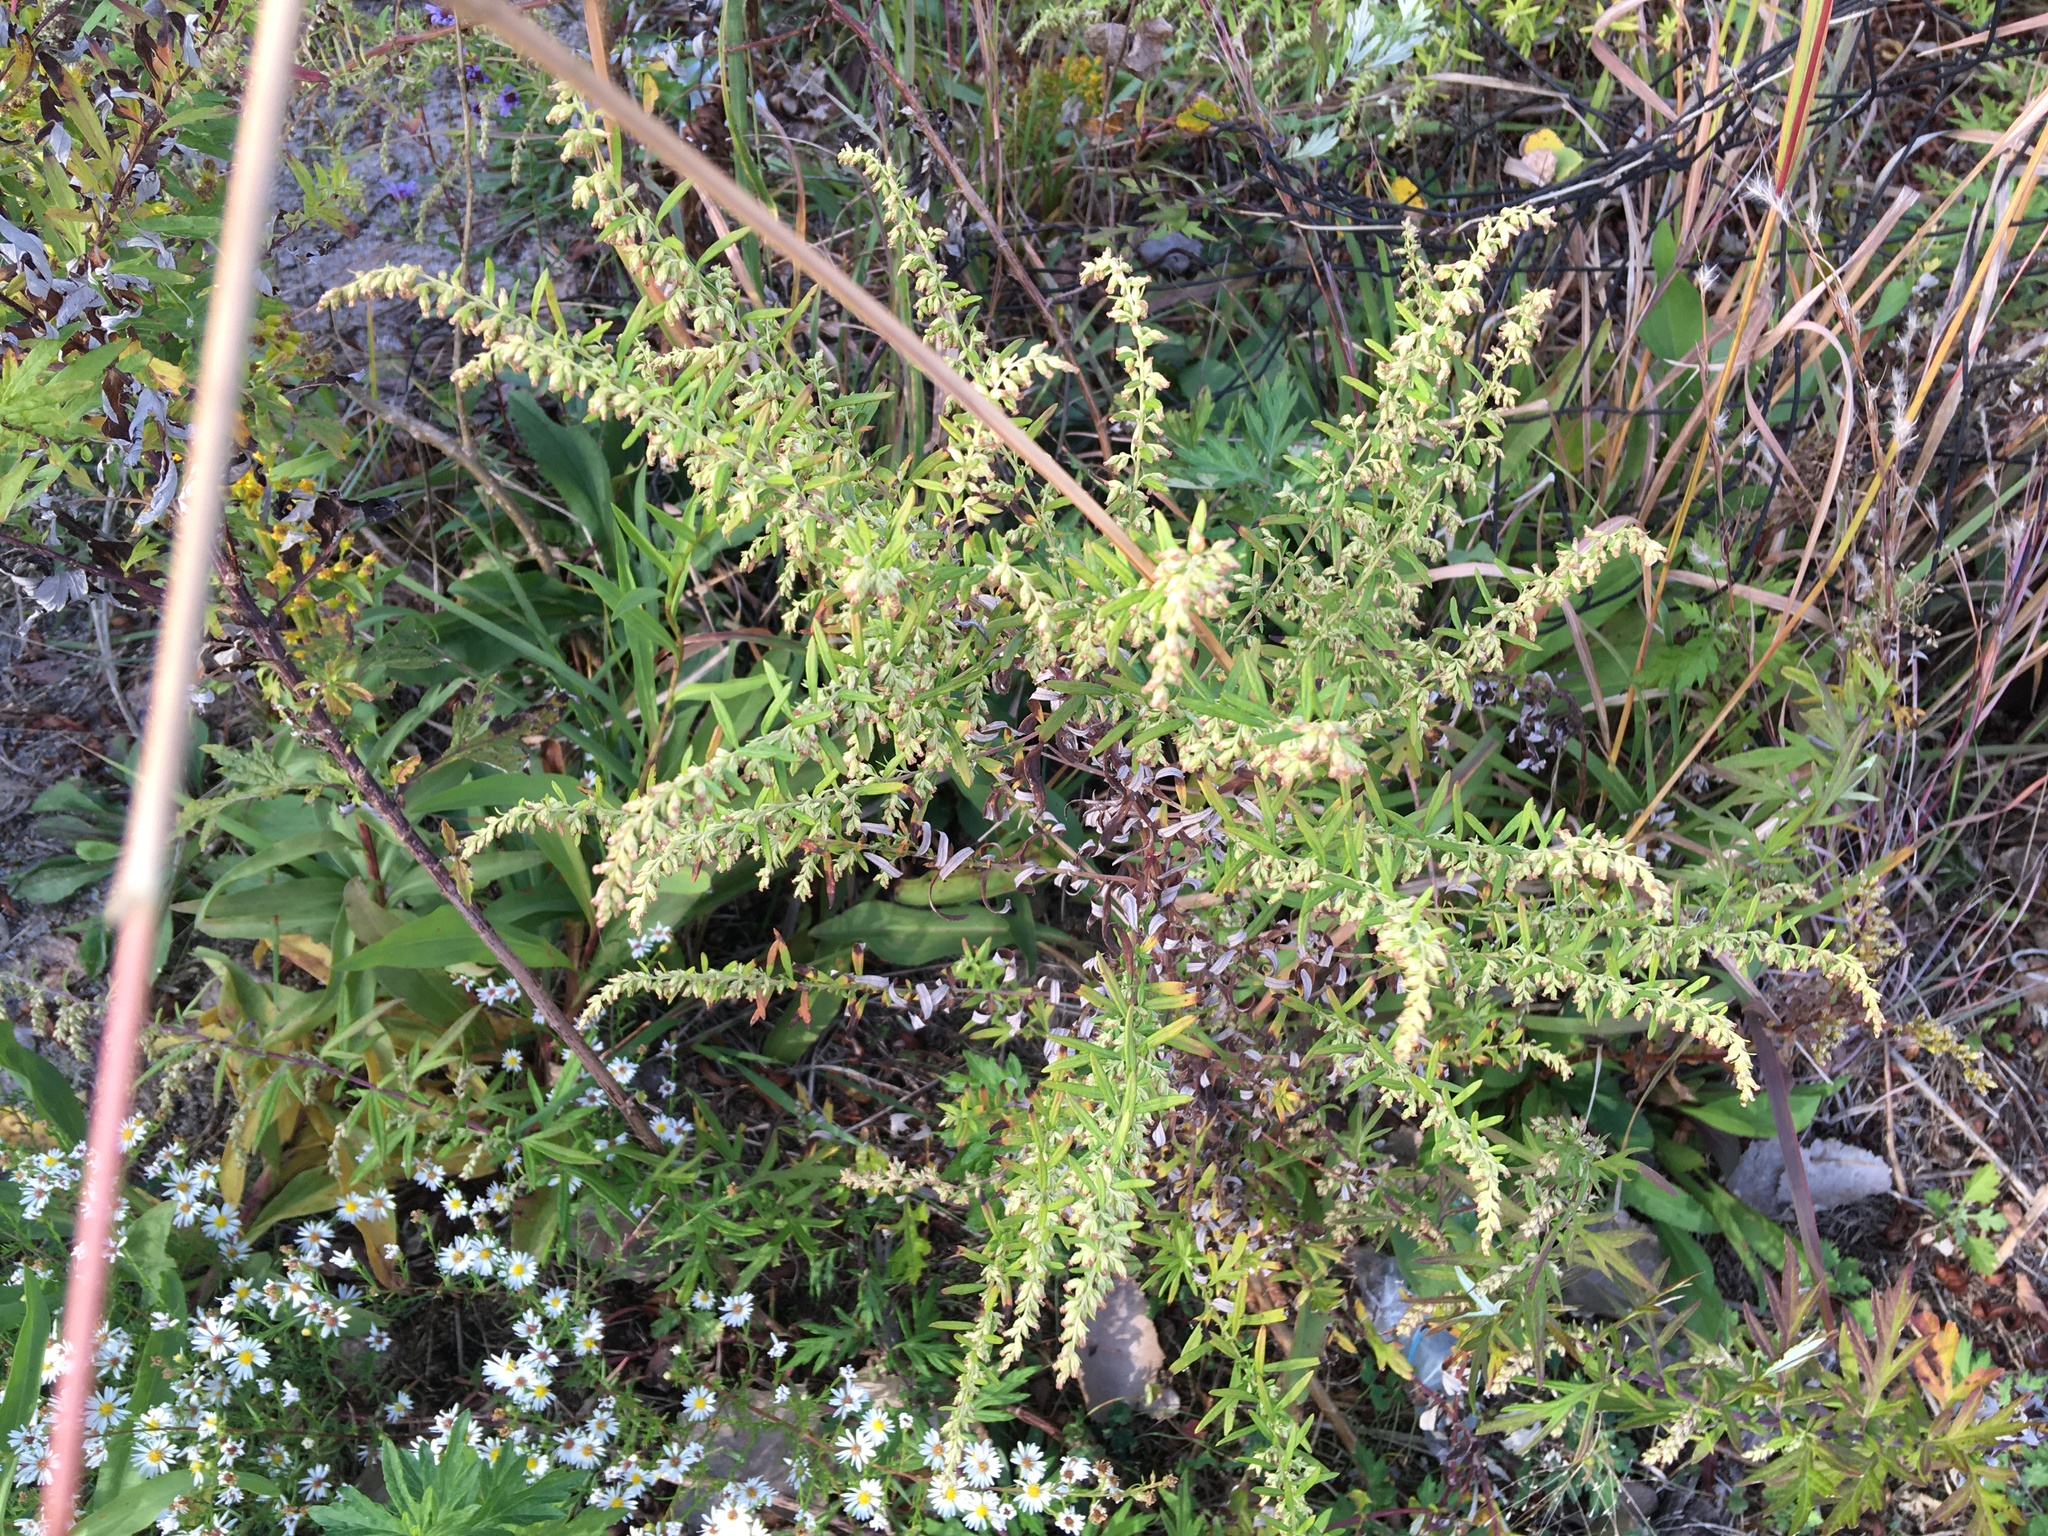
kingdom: Plantae
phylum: Tracheophyta
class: Magnoliopsida
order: Asterales
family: Asteraceae
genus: Artemisia
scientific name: Artemisia vulgaris
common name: Mugwort
